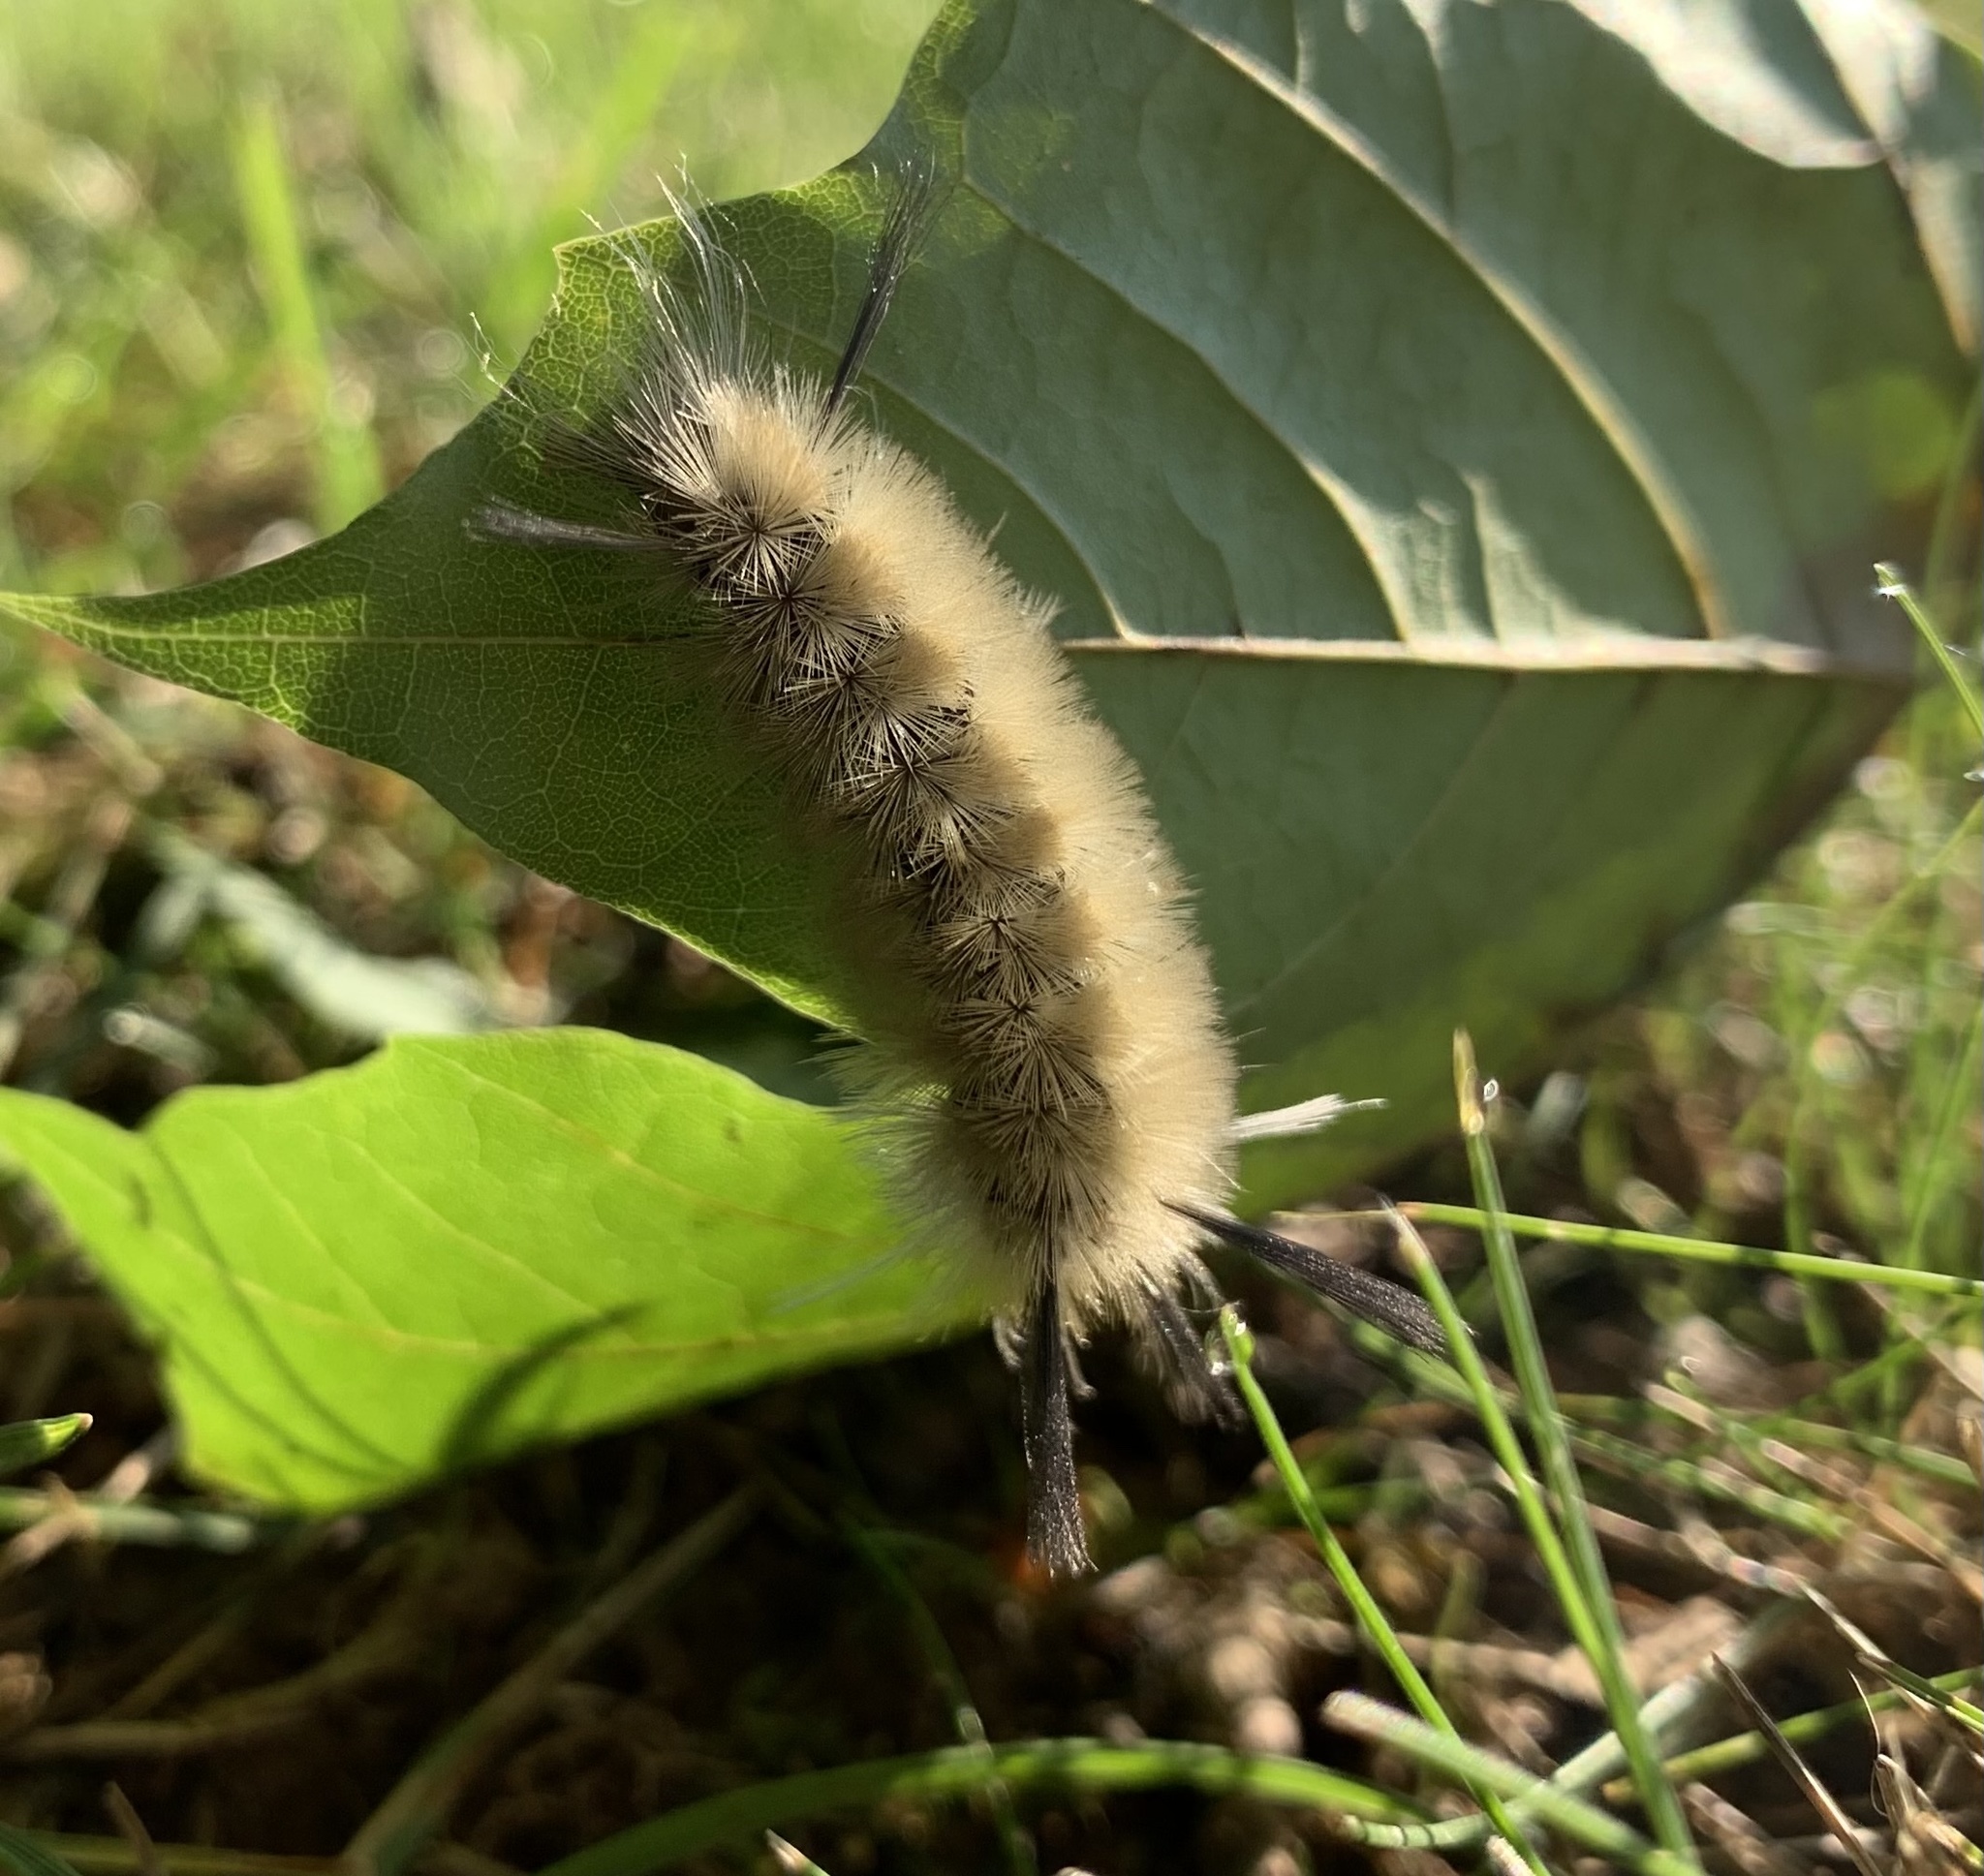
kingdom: Animalia
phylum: Arthropoda
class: Insecta
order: Lepidoptera
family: Erebidae
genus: Halysidota
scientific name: Halysidota tessellaris
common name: Banded tussock moth
